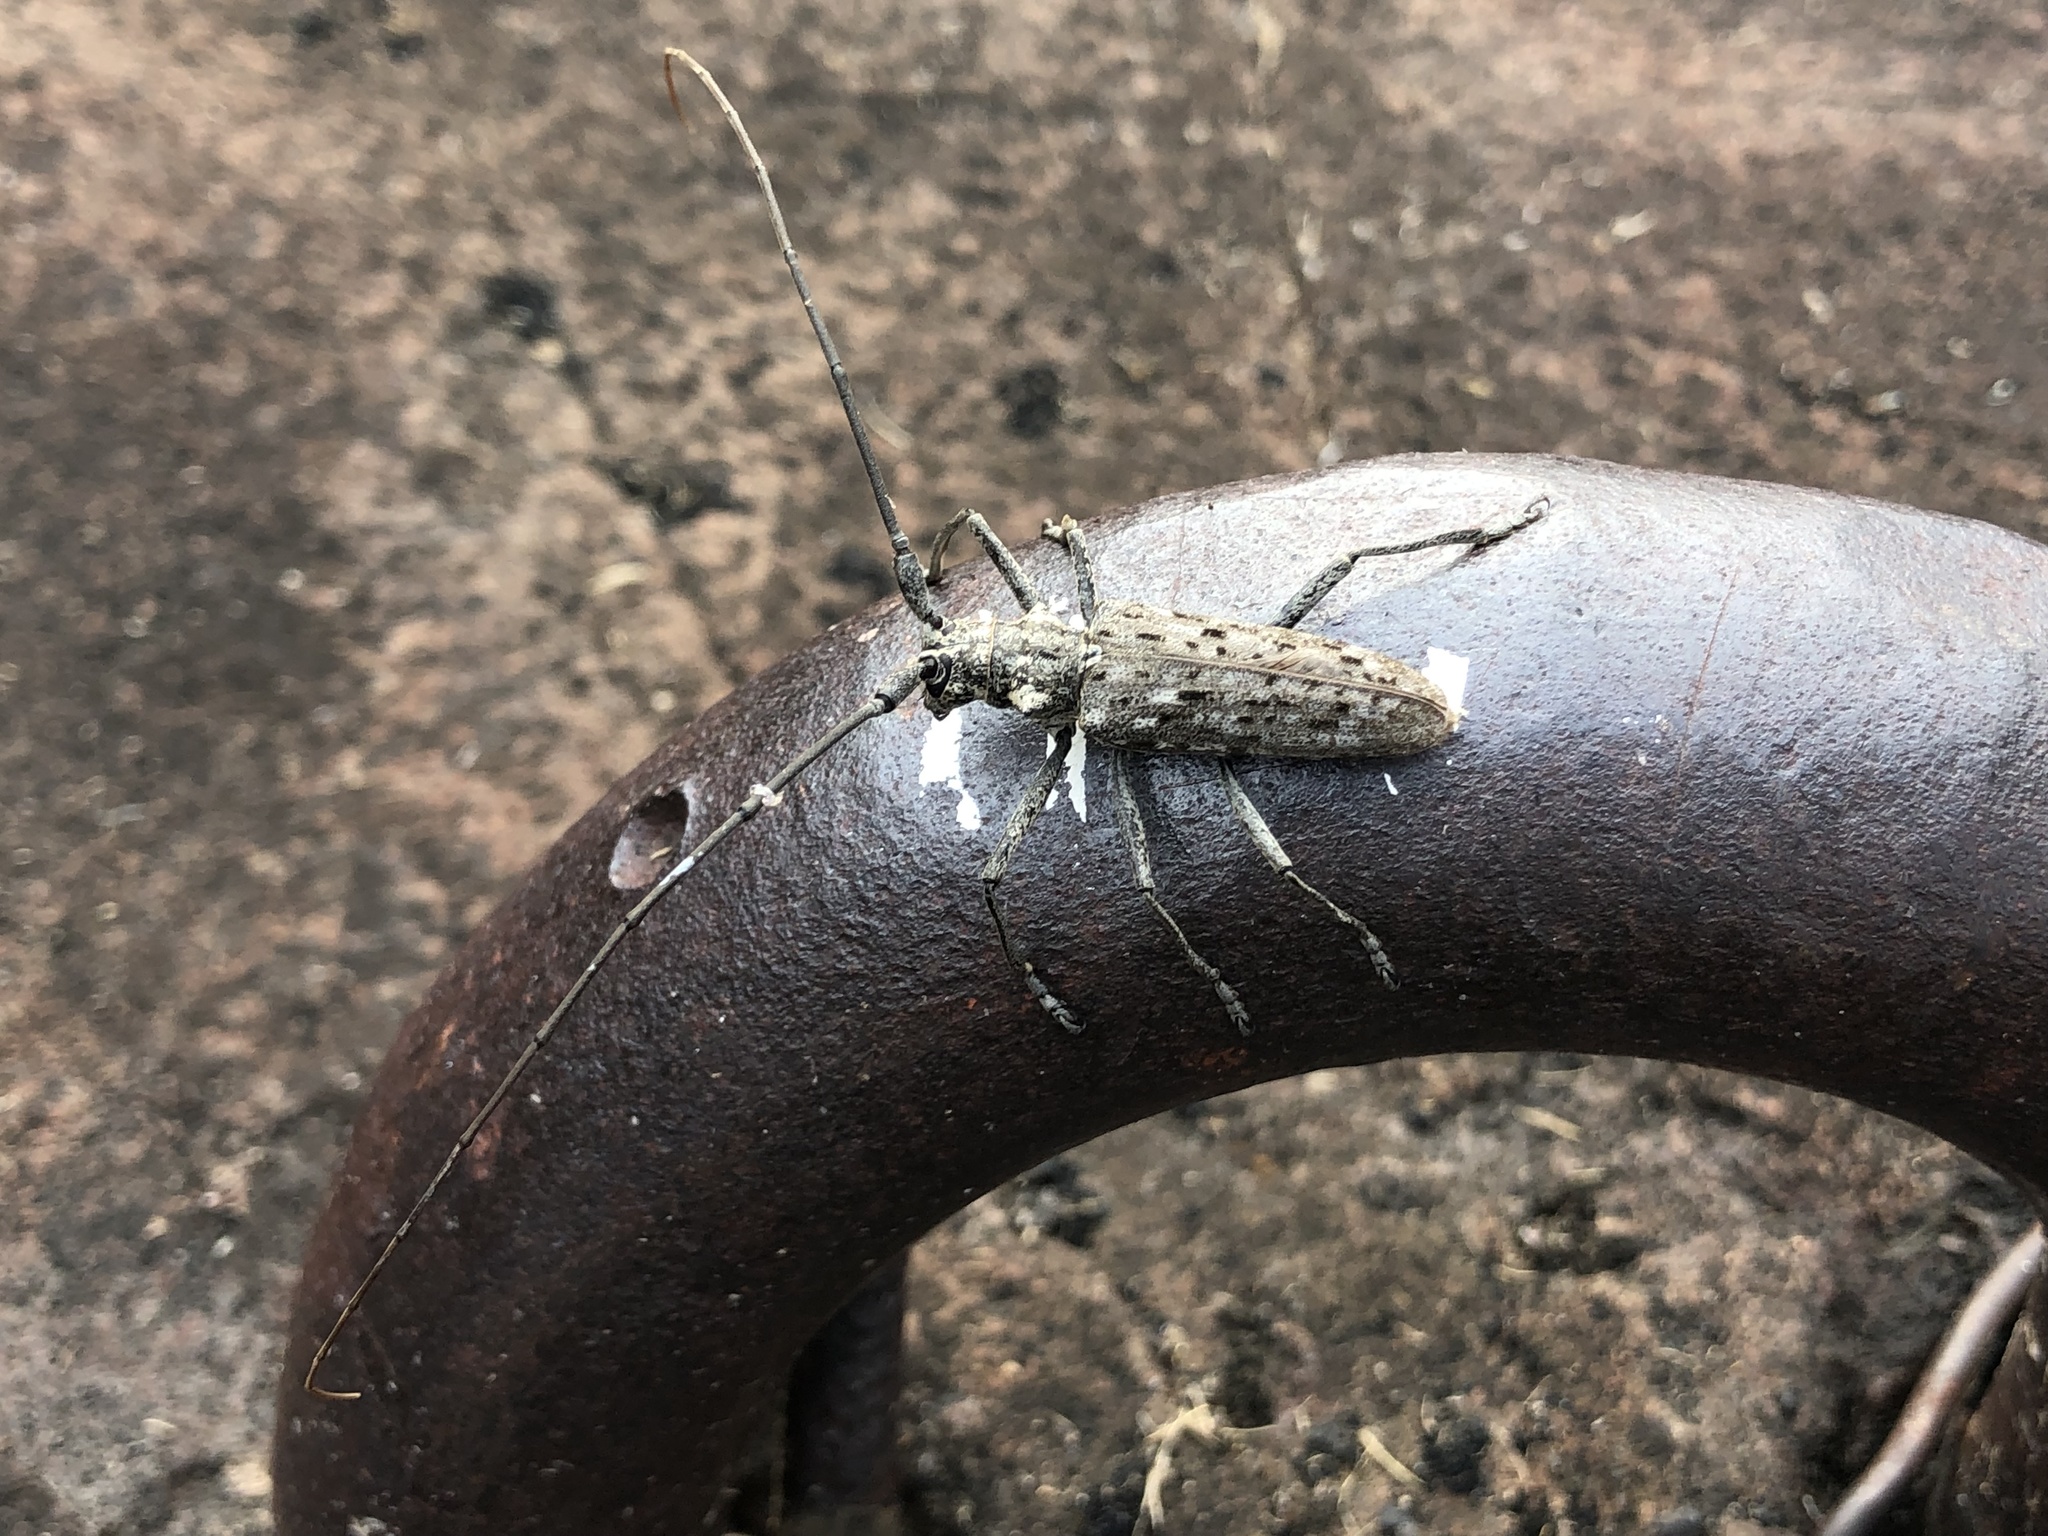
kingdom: Animalia
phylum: Arthropoda
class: Insecta
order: Coleoptera
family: Cerambycidae
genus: Monochamus
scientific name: Monochamus notatus
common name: Northeastern pine sawyer beetle
